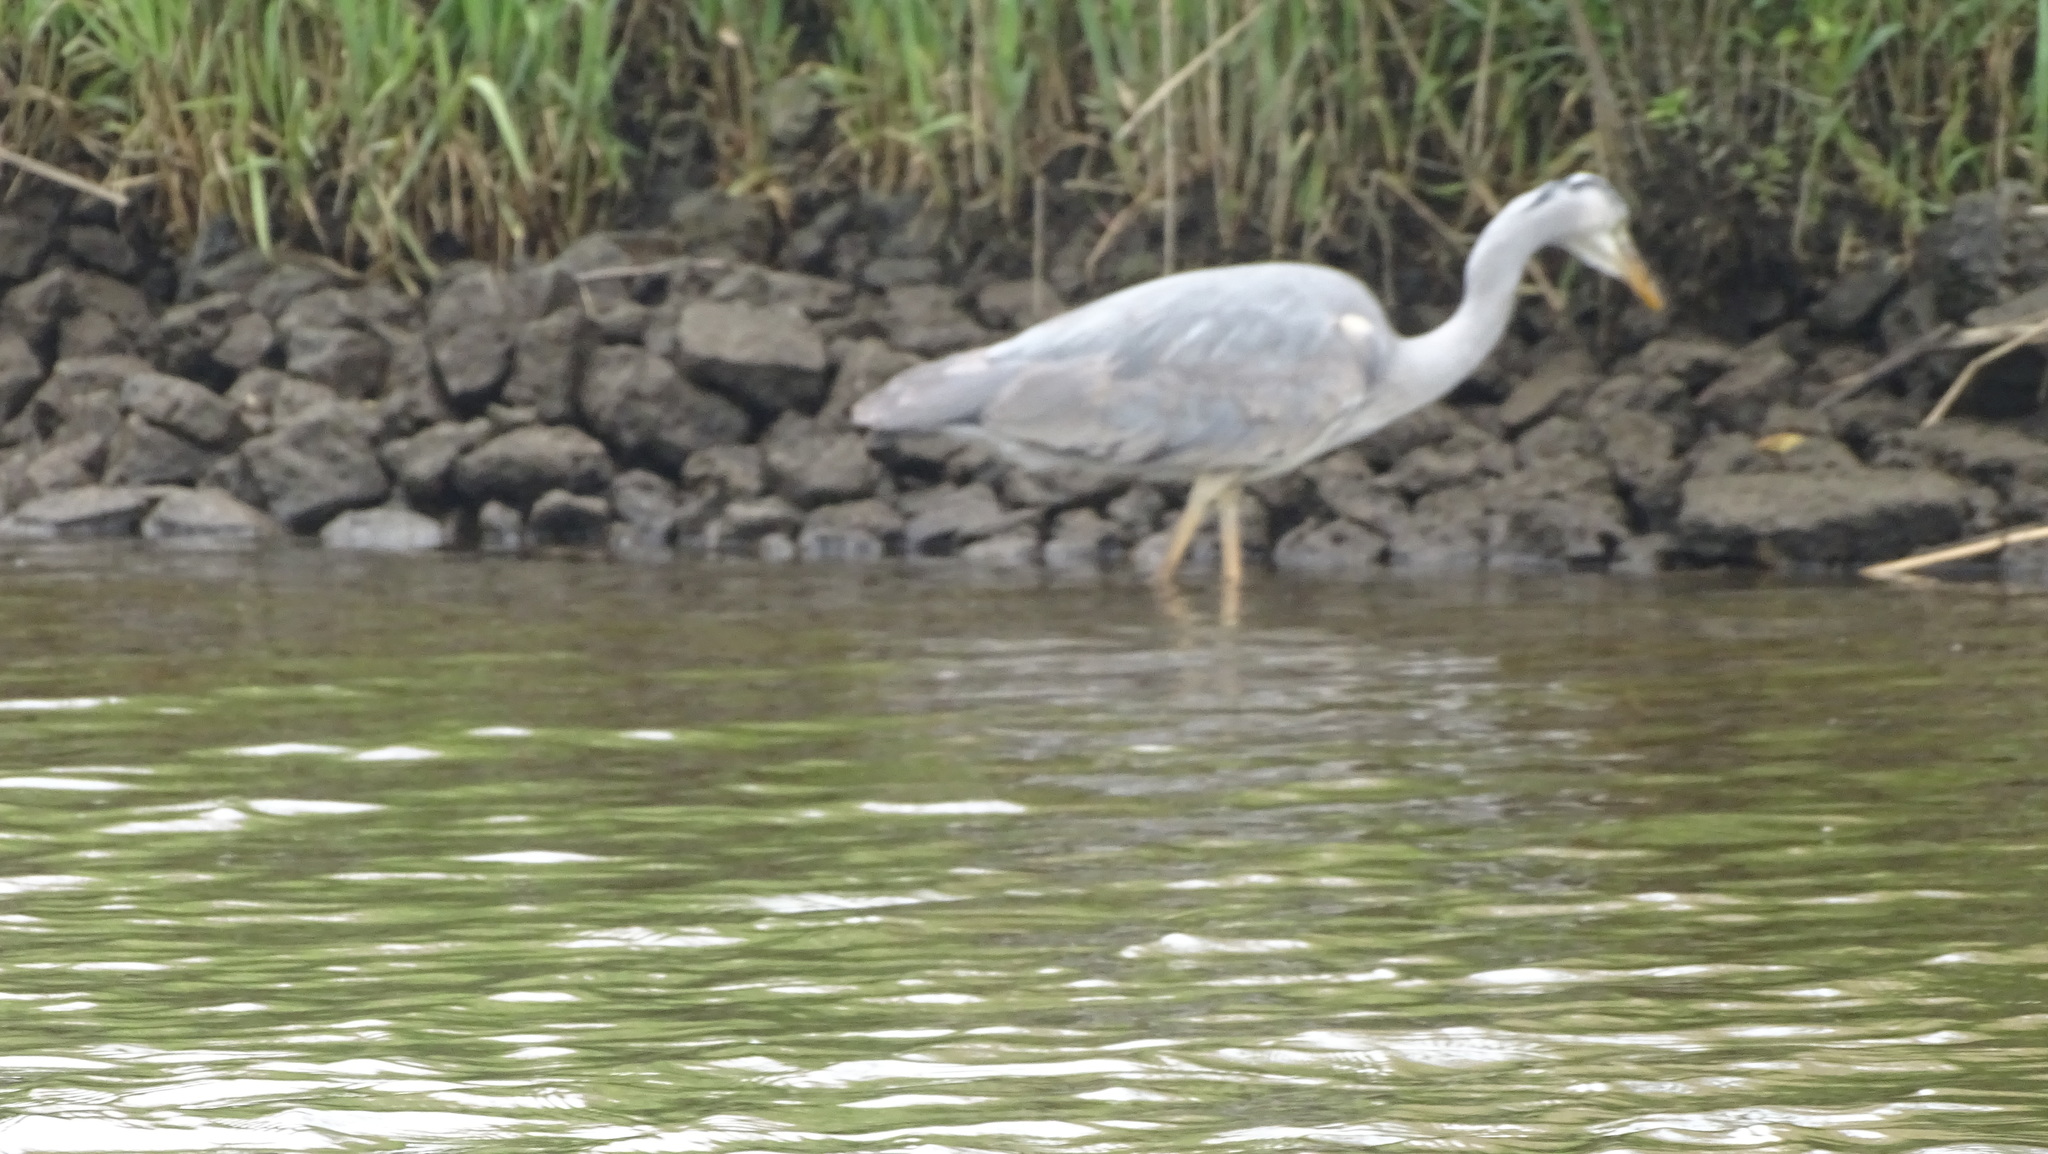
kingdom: Animalia
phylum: Chordata
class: Aves
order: Pelecaniformes
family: Ardeidae
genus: Ardea
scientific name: Ardea cinerea
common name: Grey heron
